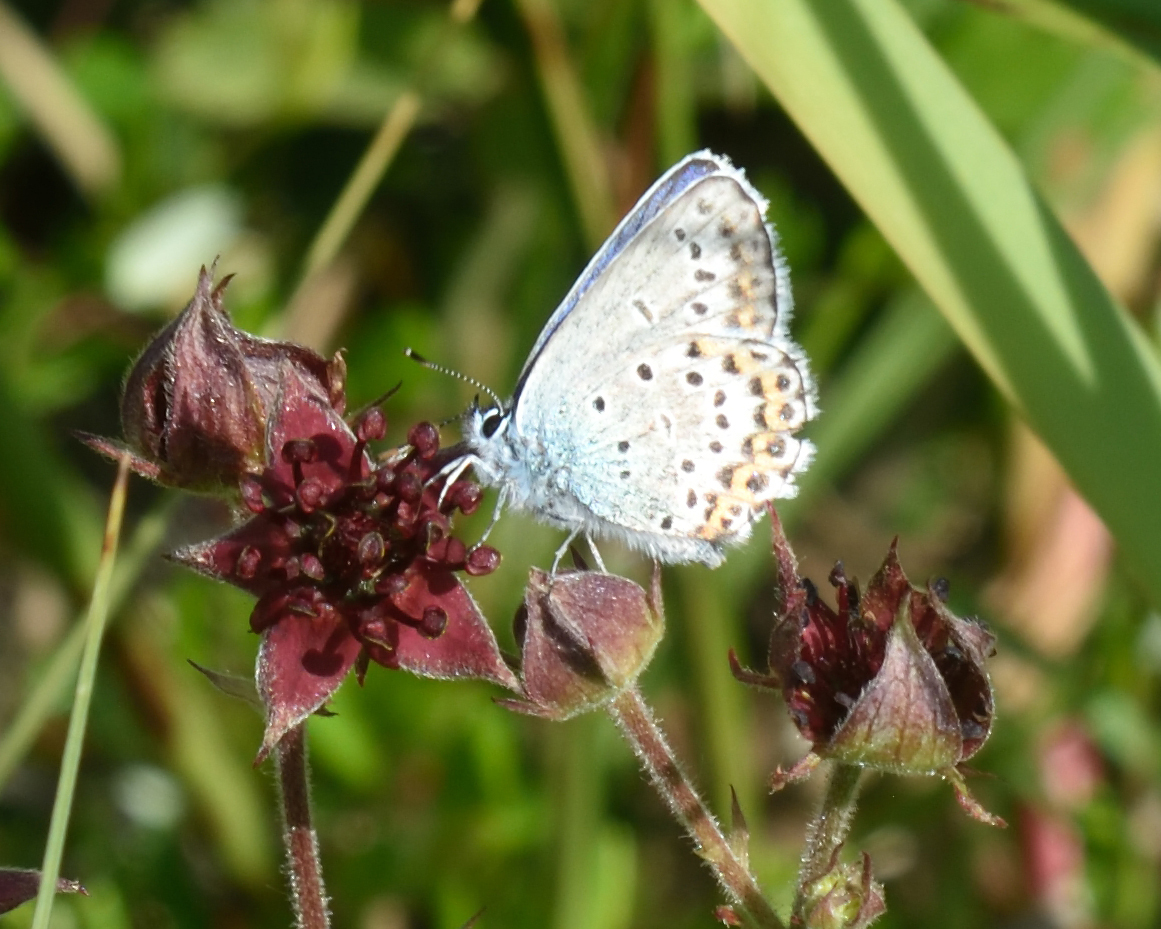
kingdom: Animalia
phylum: Arthropoda
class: Insecta
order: Lepidoptera
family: Lycaenidae
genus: Lycaeides
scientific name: Lycaeides idas
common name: Northern blue
